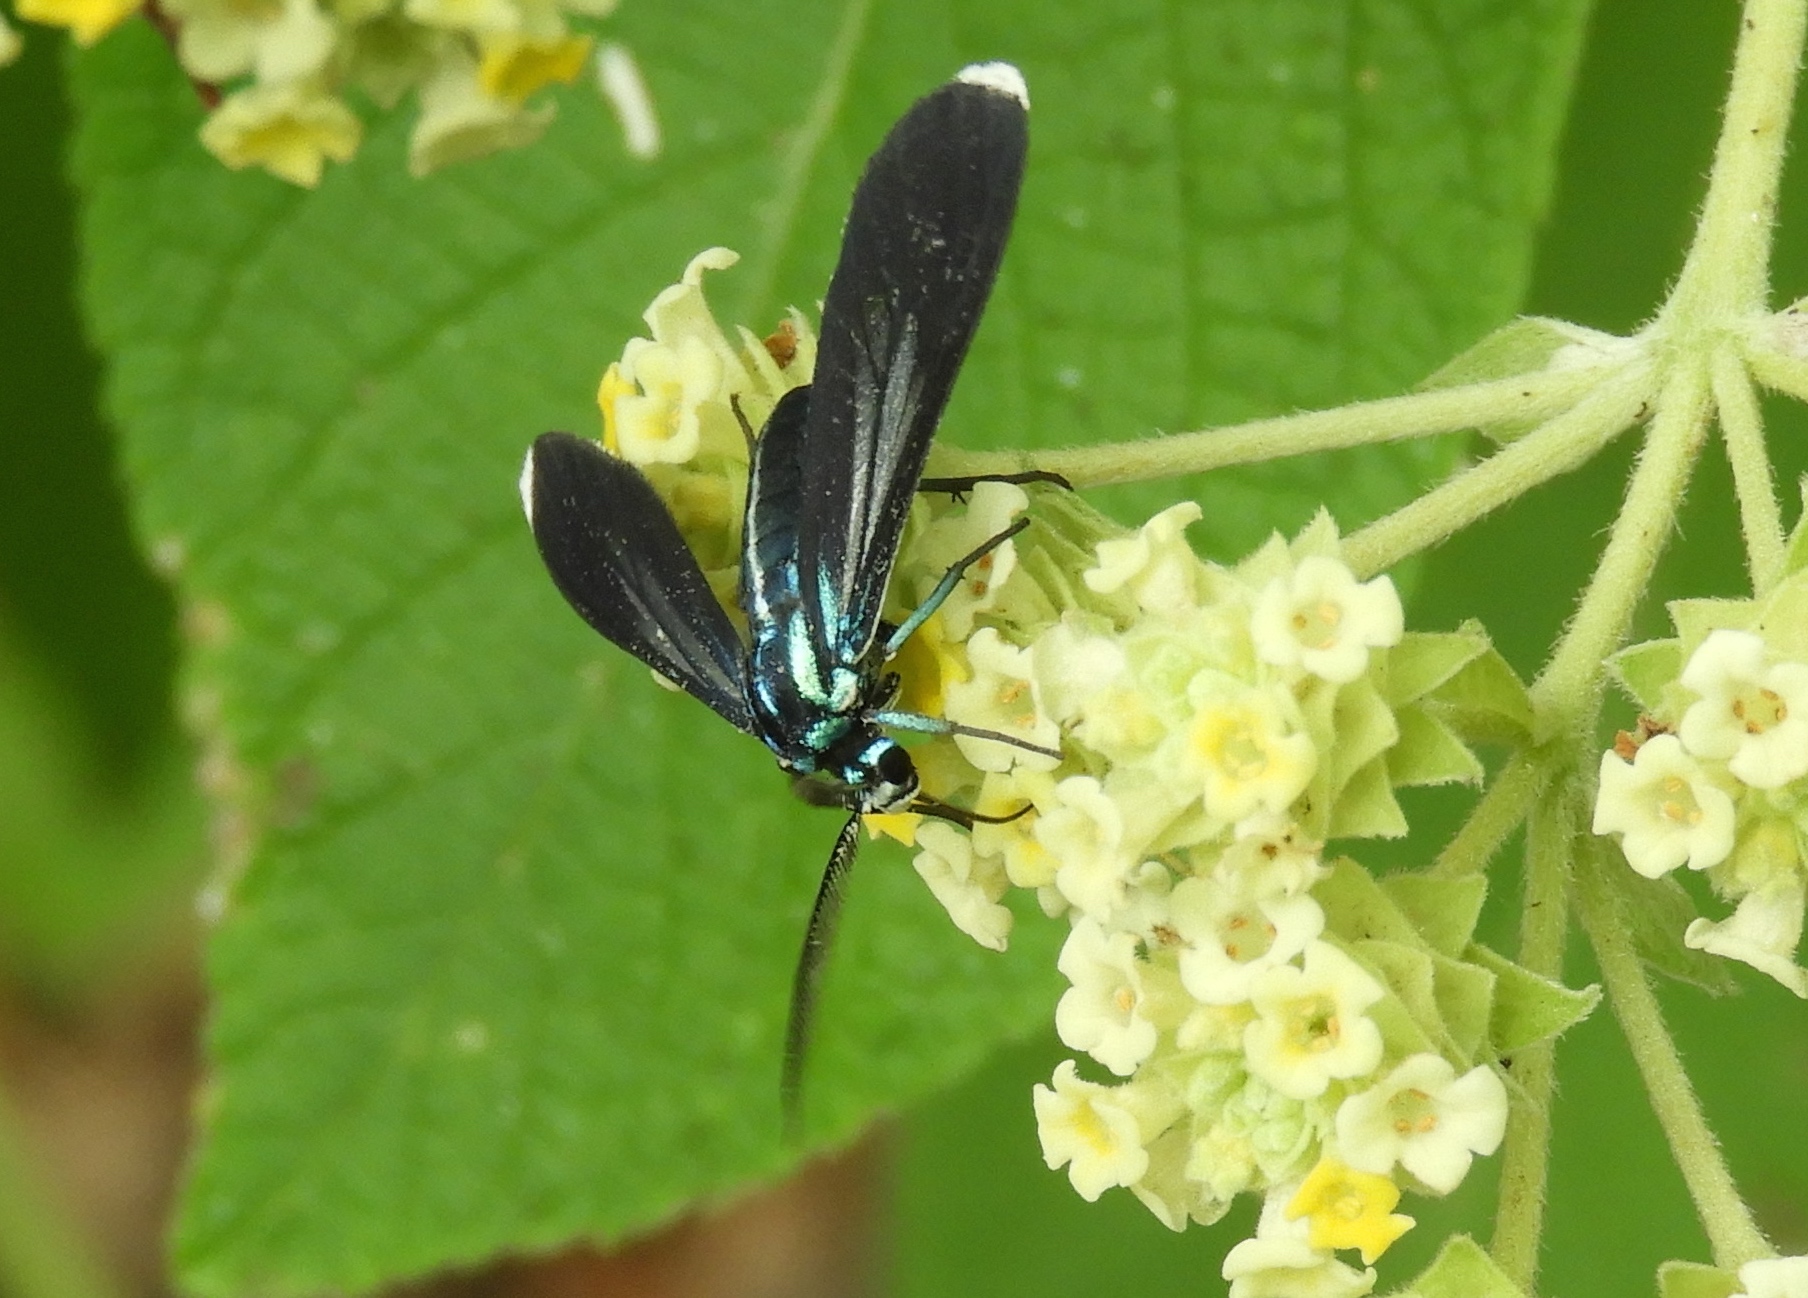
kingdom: Animalia
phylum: Arthropoda
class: Insecta
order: Lepidoptera
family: Erebidae
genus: Uranophora
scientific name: Uranophora leucotela
